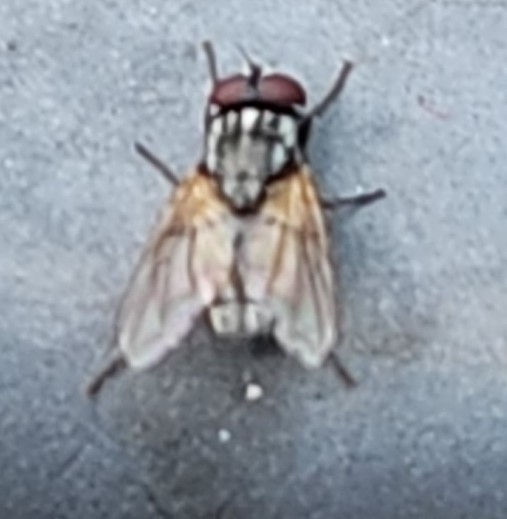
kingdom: Animalia
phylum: Arthropoda
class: Insecta
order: Diptera
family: Muscidae
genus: Musca
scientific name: Musca domestica
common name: House fly
